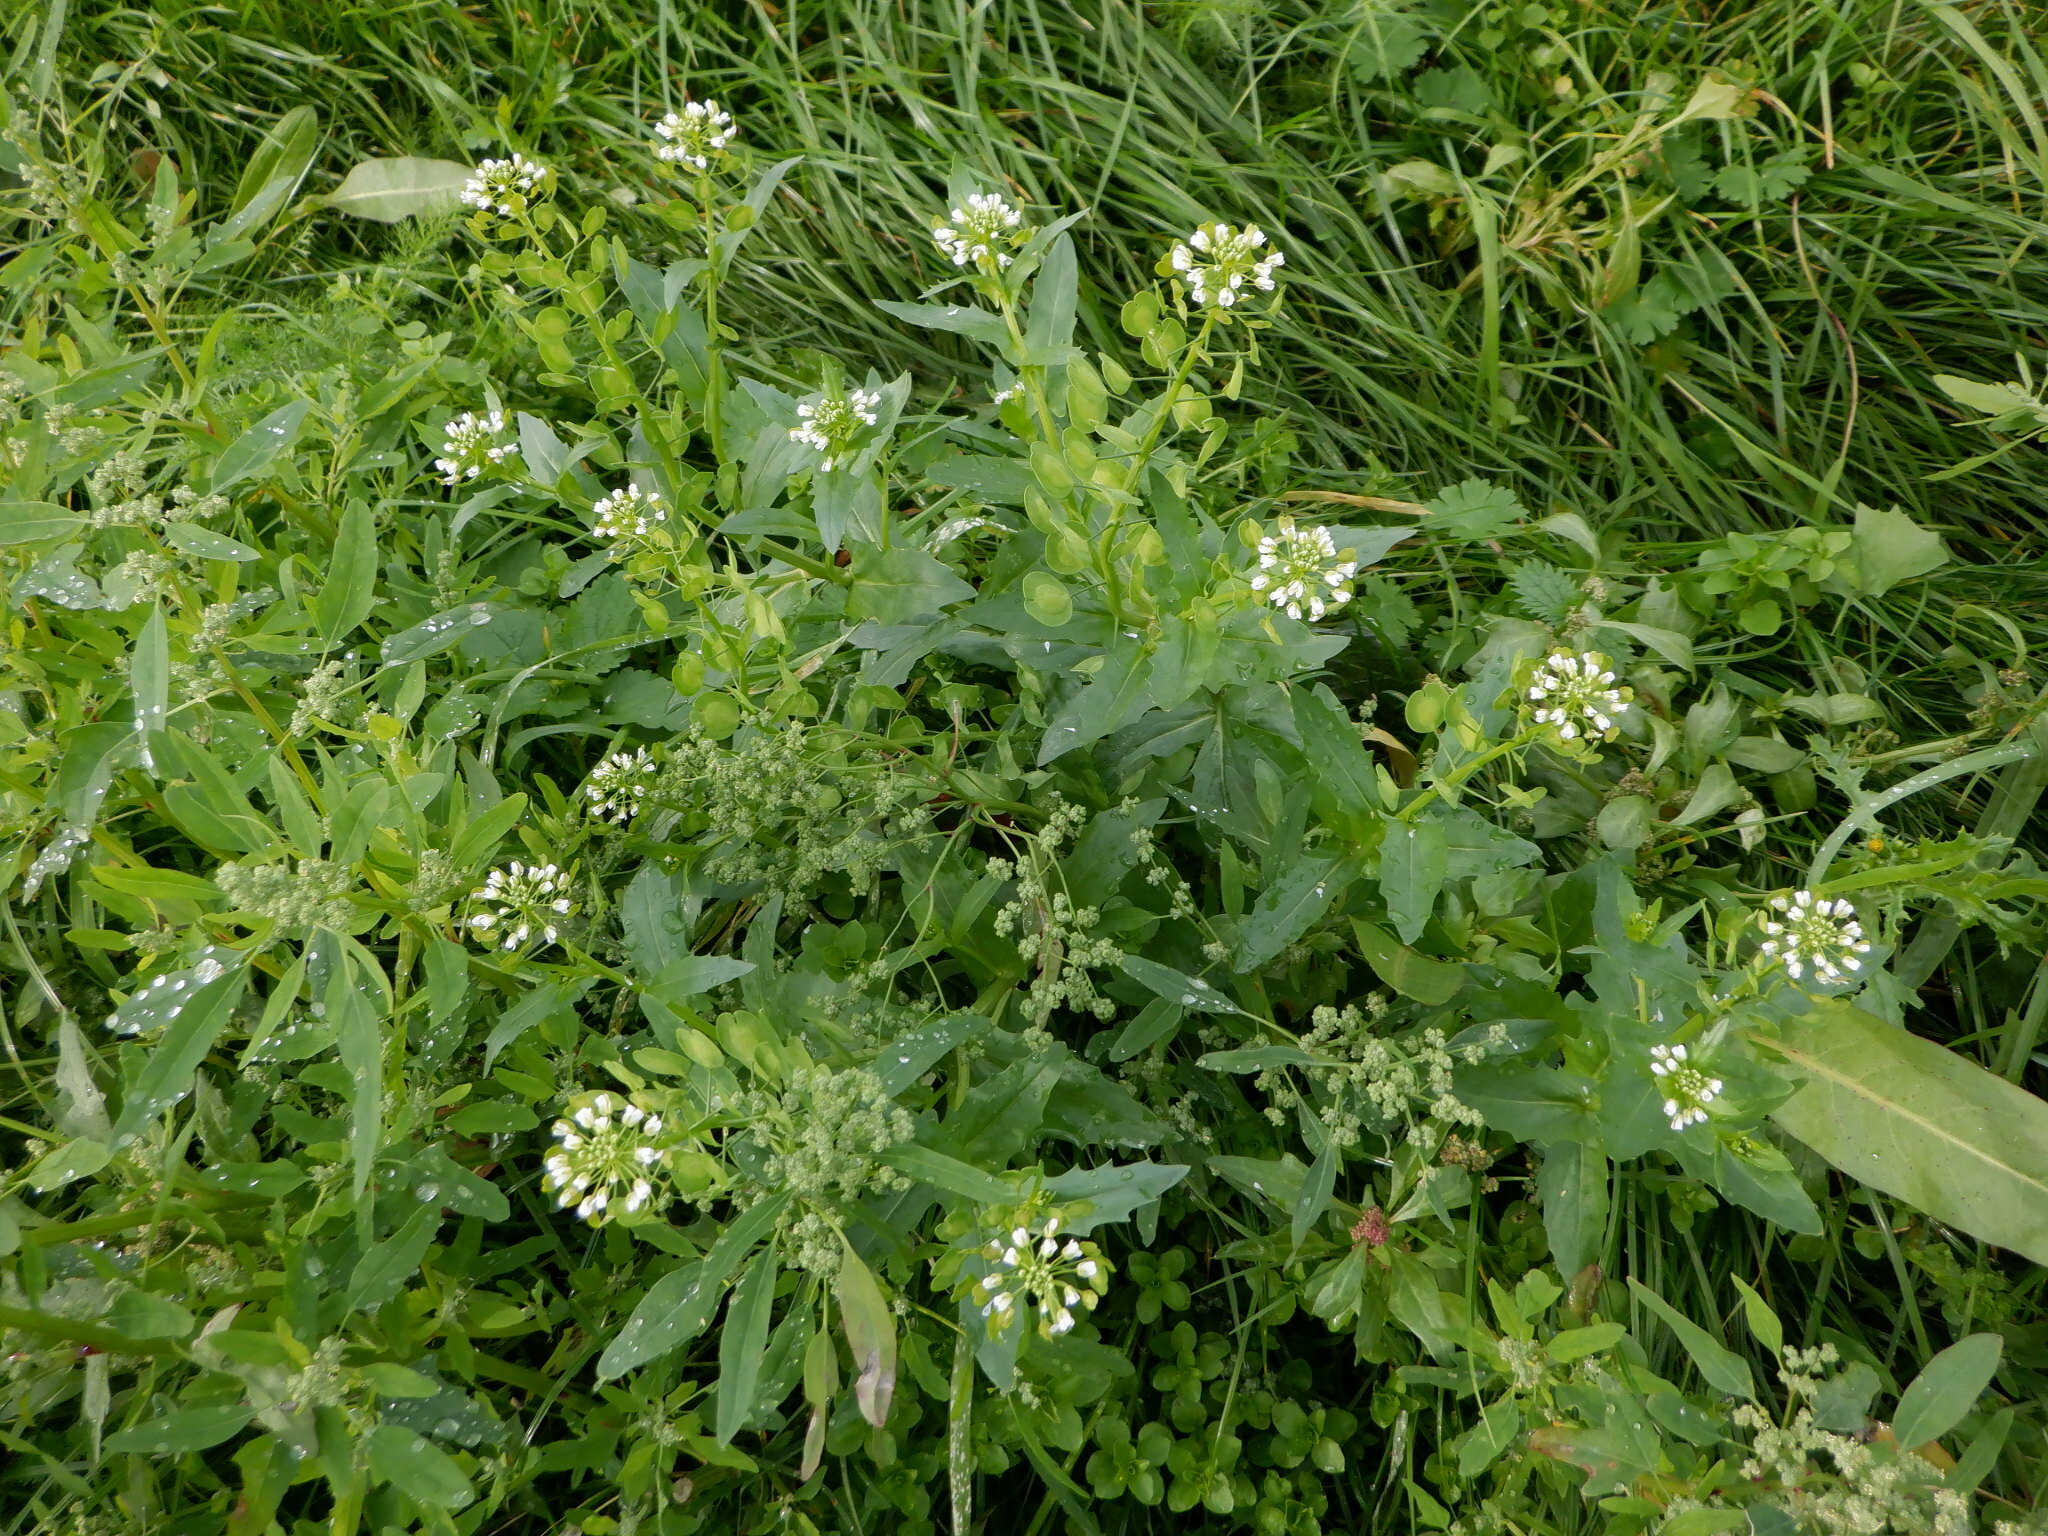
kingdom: Plantae
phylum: Tracheophyta
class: Magnoliopsida
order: Brassicales
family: Brassicaceae
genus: Thlaspi
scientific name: Thlaspi arvense
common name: Field pennycress
